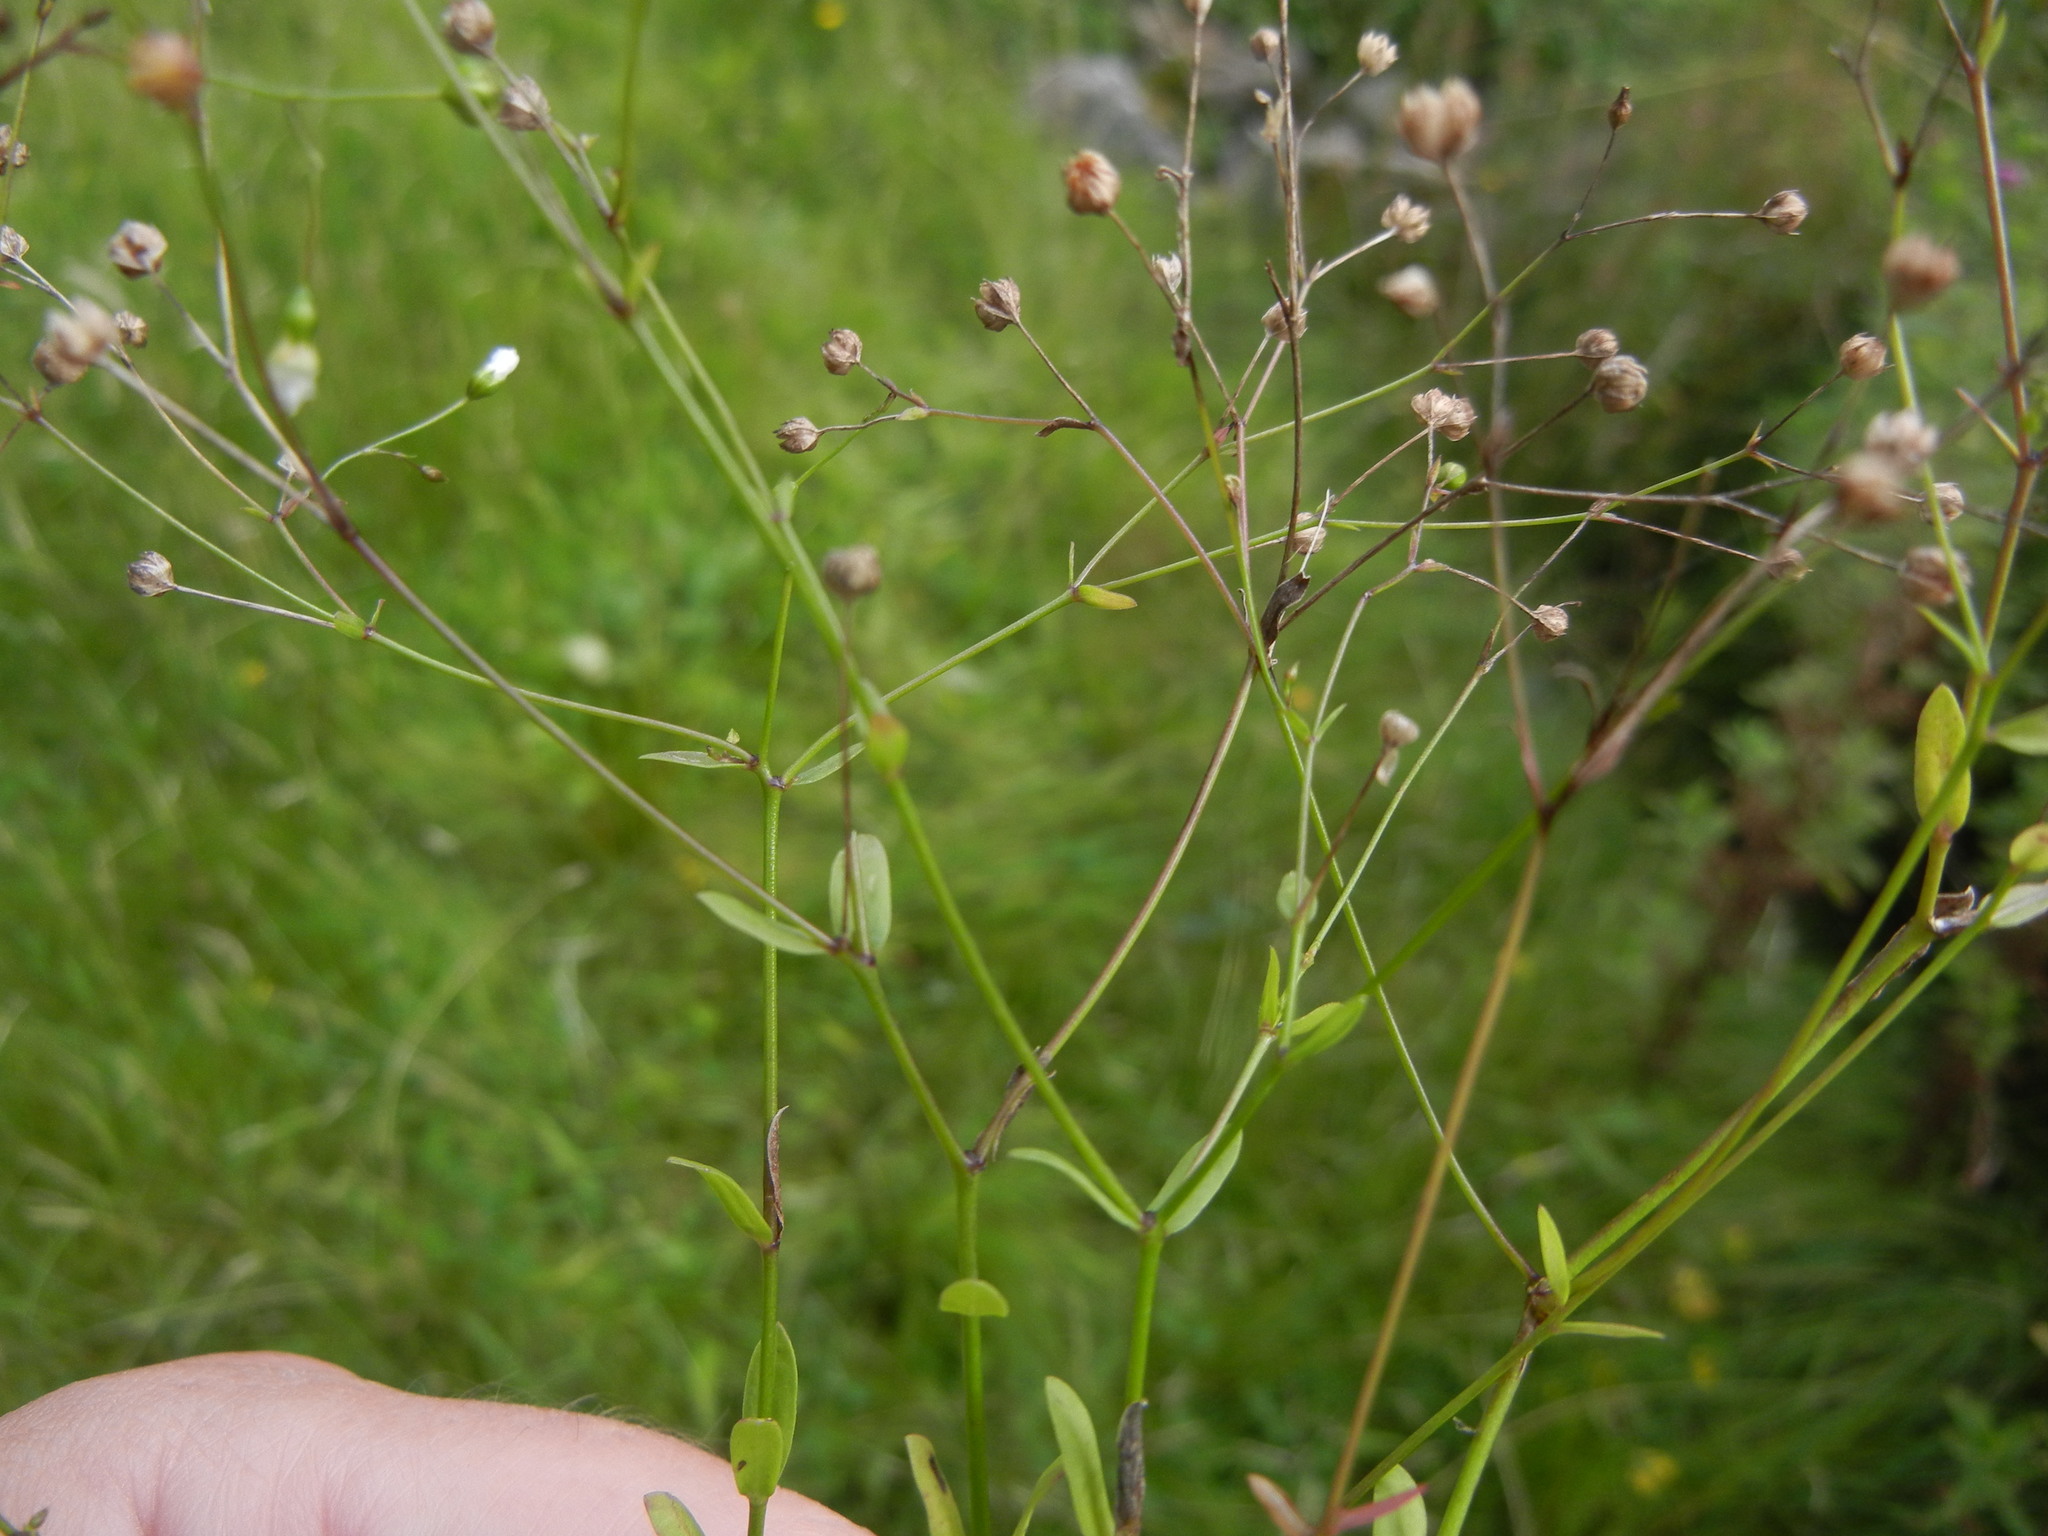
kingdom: Plantae
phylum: Tracheophyta
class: Magnoliopsida
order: Malpighiales
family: Linaceae
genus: Linum
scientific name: Linum catharticum
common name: Fairy flax
